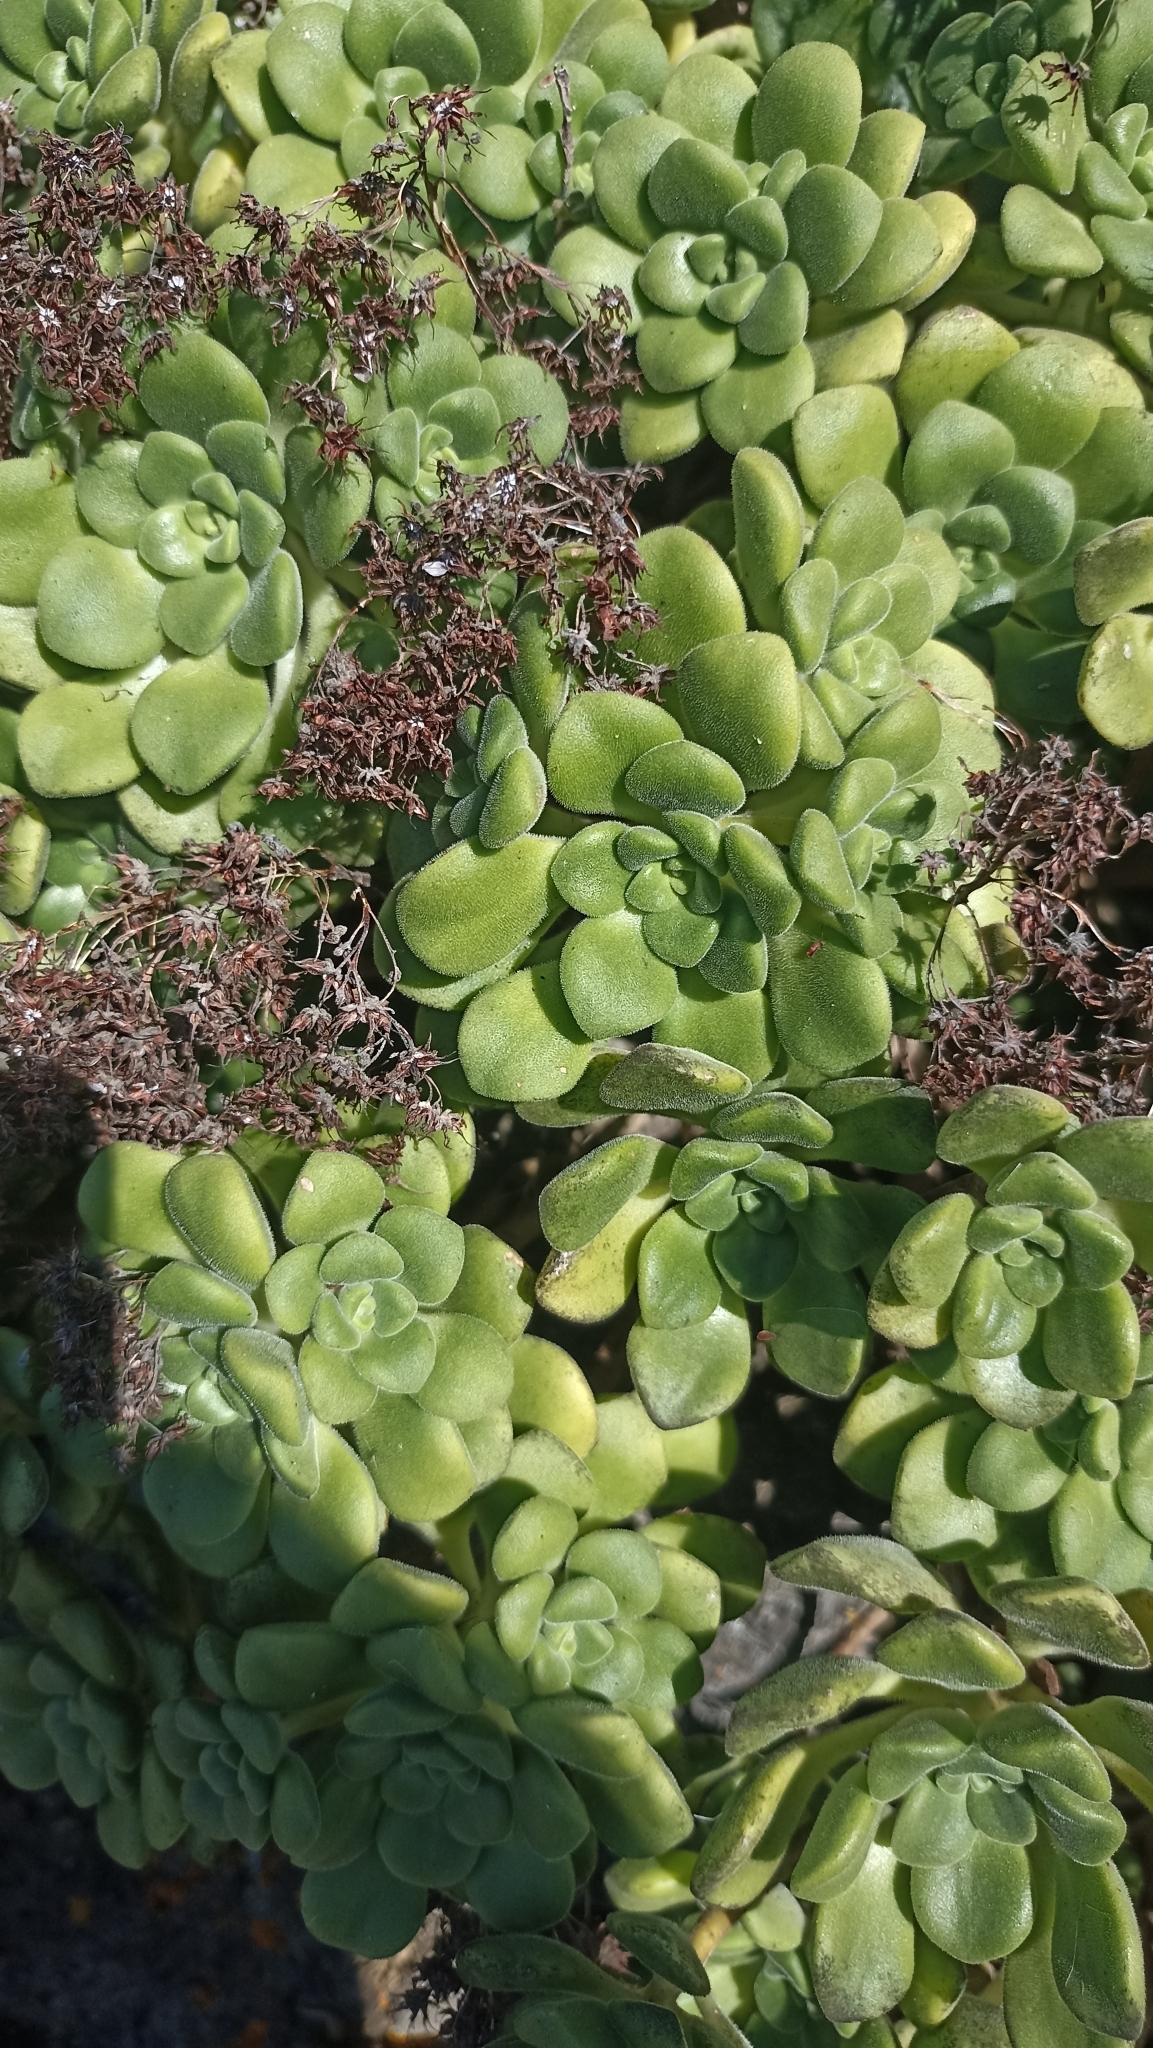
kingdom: Plantae
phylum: Tracheophyta
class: Magnoliopsida
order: Saxifragales
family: Crassulaceae
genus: Aeonium
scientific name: Aeonium lindleyi
